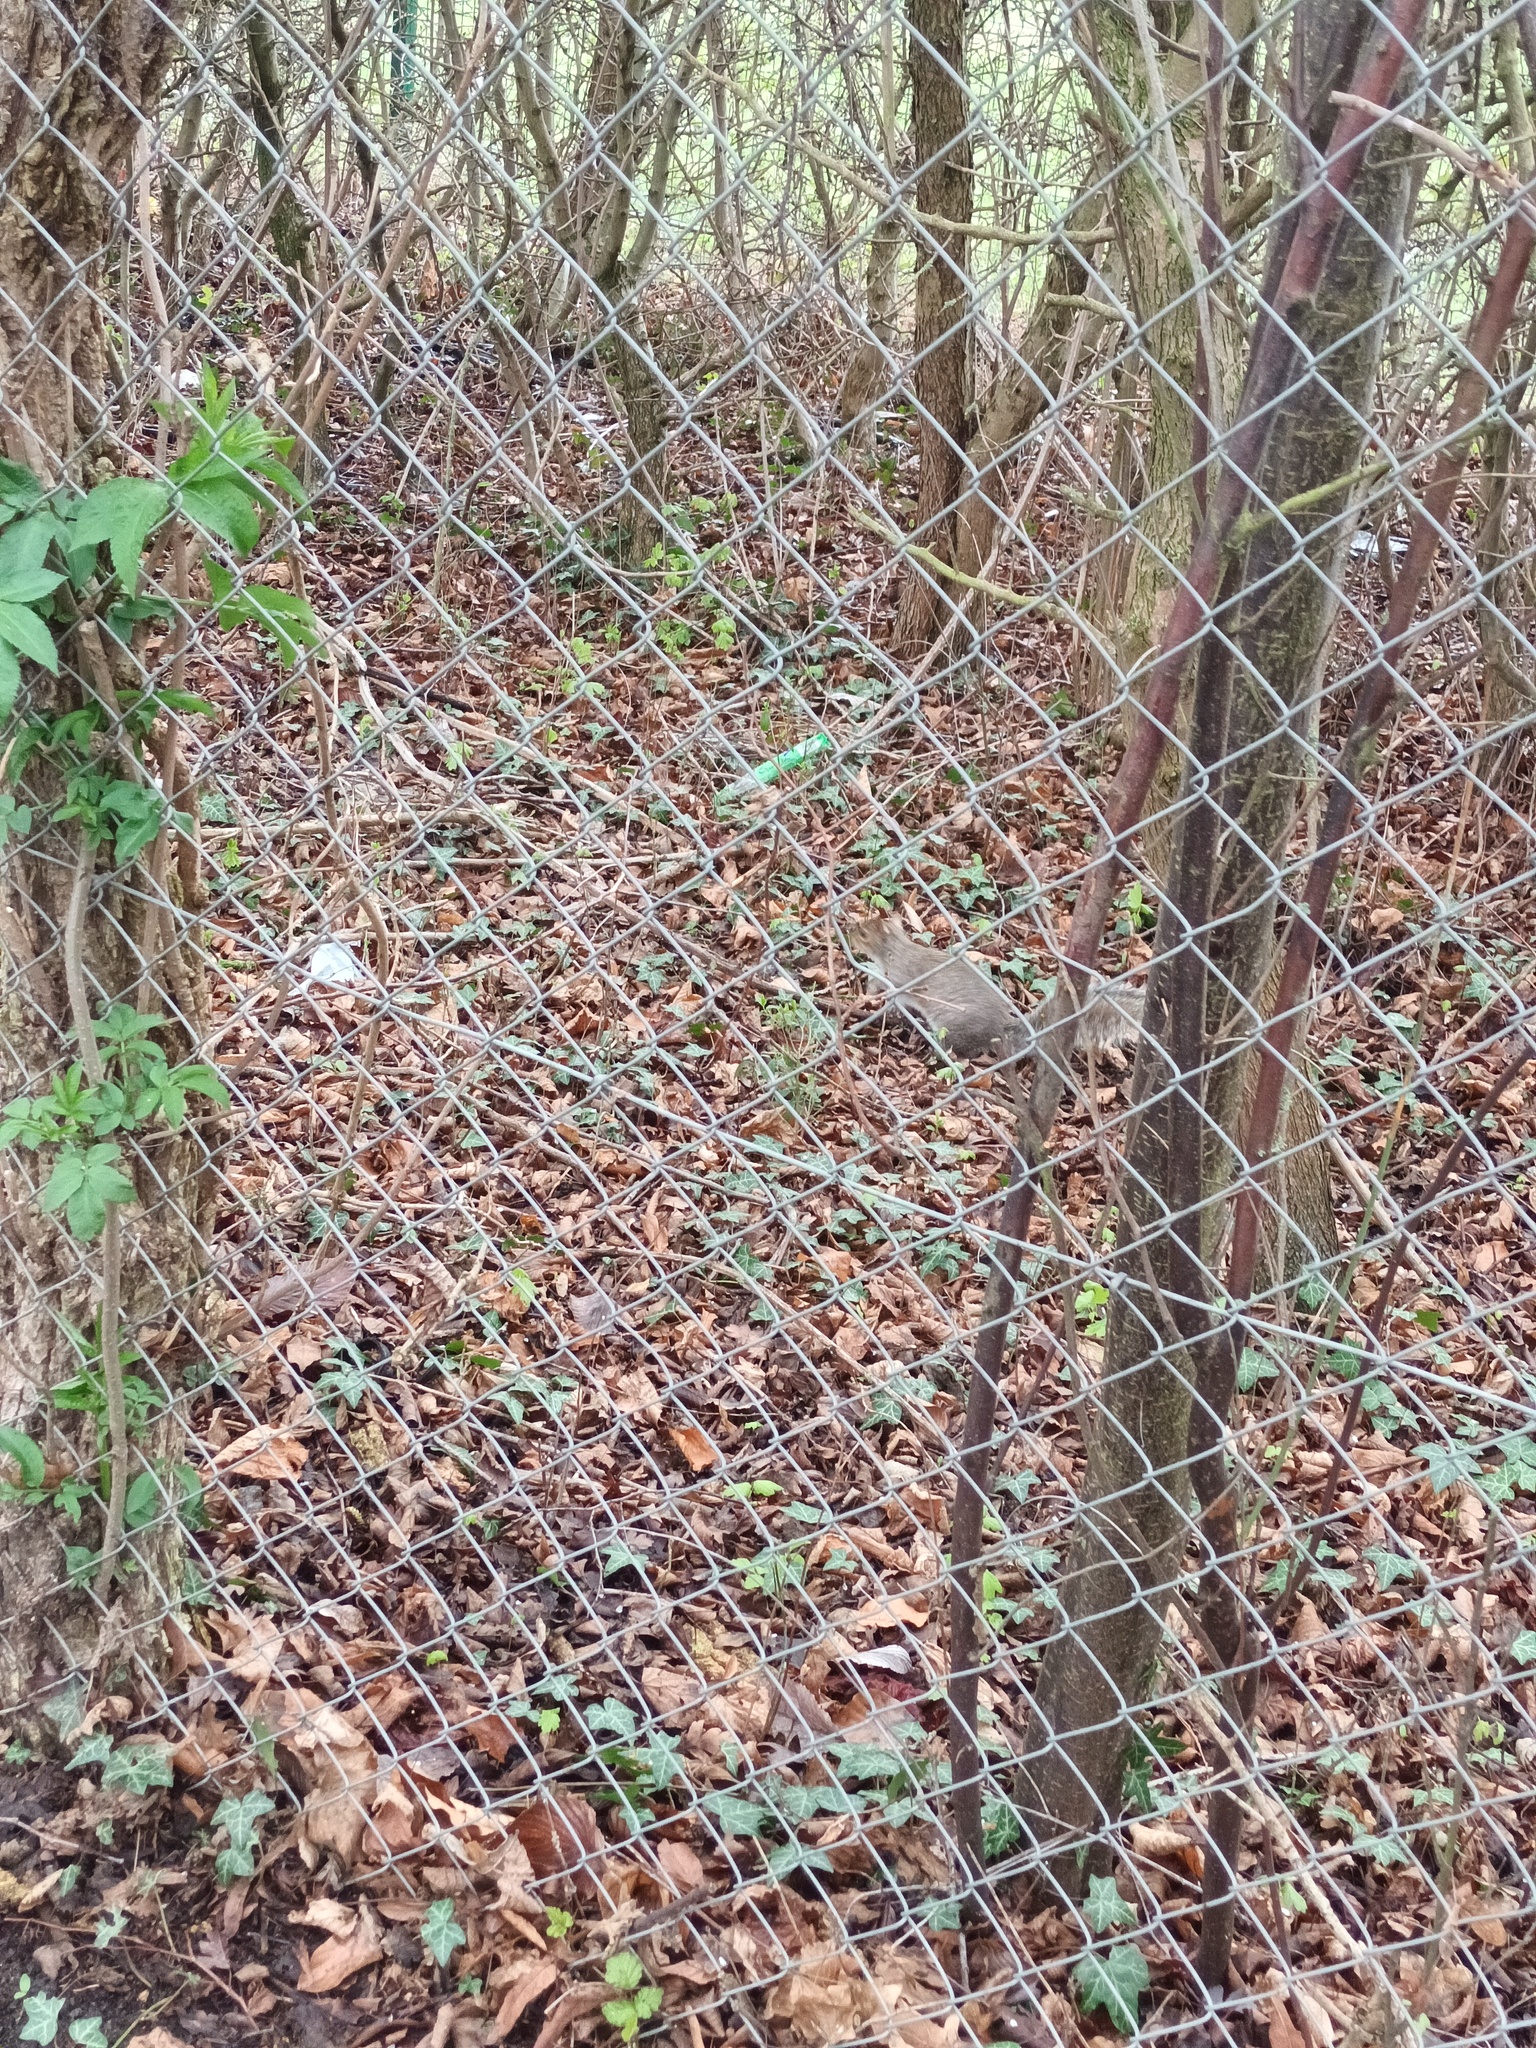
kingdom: Animalia
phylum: Chordata
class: Mammalia
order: Rodentia
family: Sciuridae
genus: Sciurus
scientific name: Sciurus carolinensis
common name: Eastern gray squirrel
